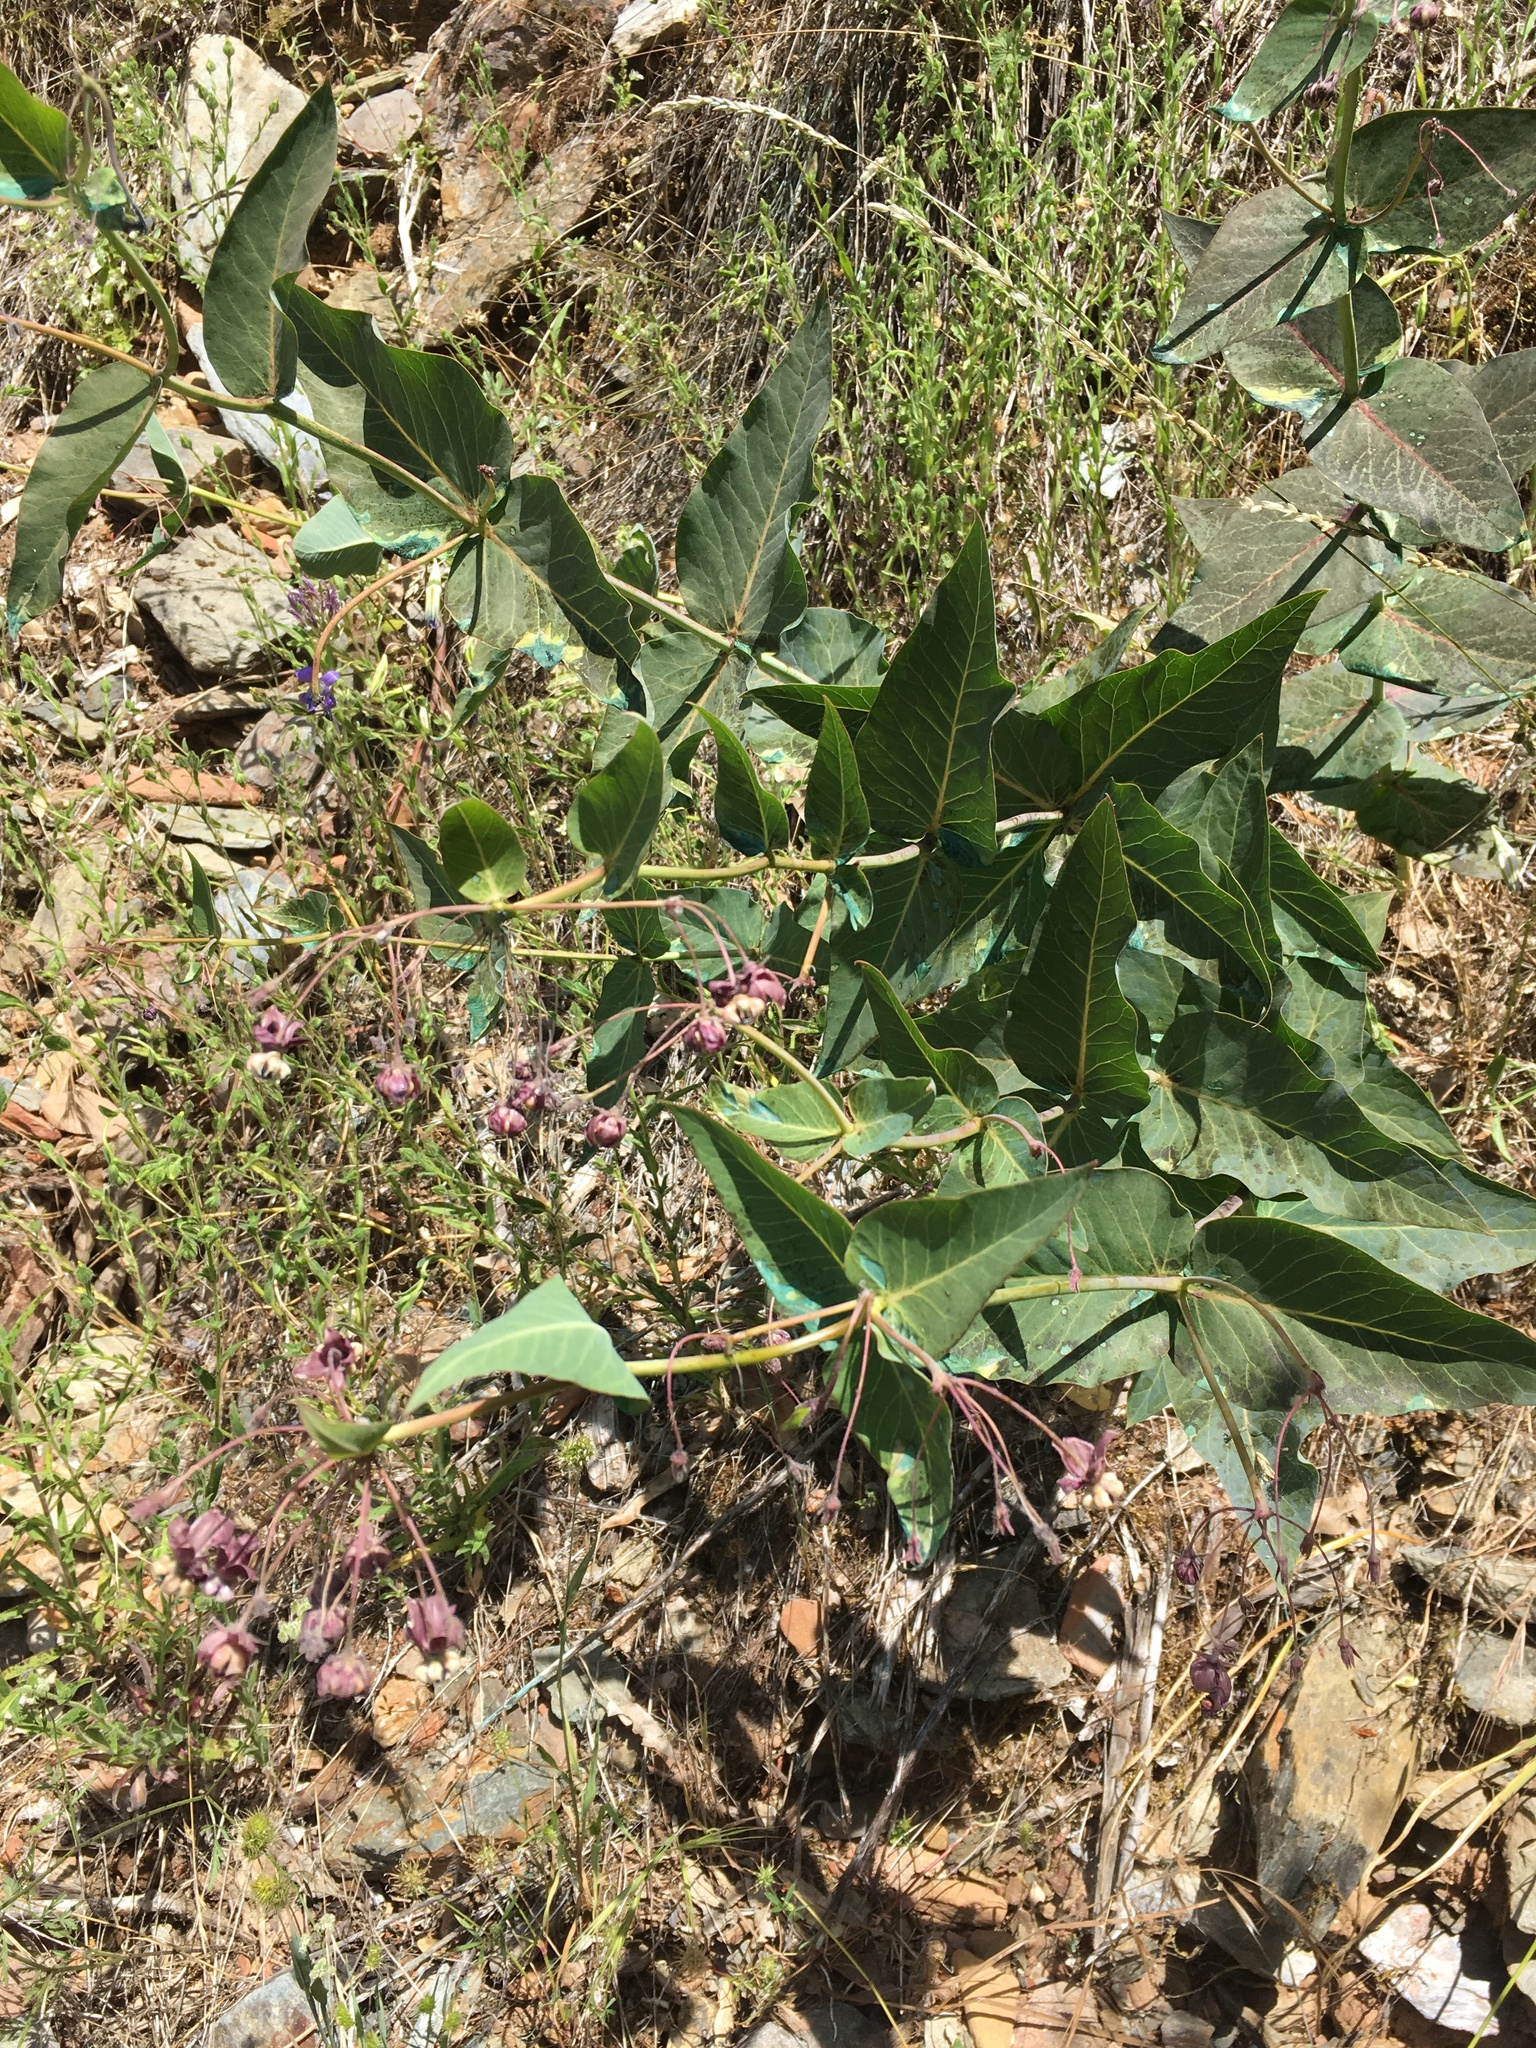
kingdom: Plantae
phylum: Tracheophyta
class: Magnoliopsida
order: Gentianales
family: Apocynaceae
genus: Asclepias
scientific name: Asclepias cordifolia
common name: Purple milkweed
